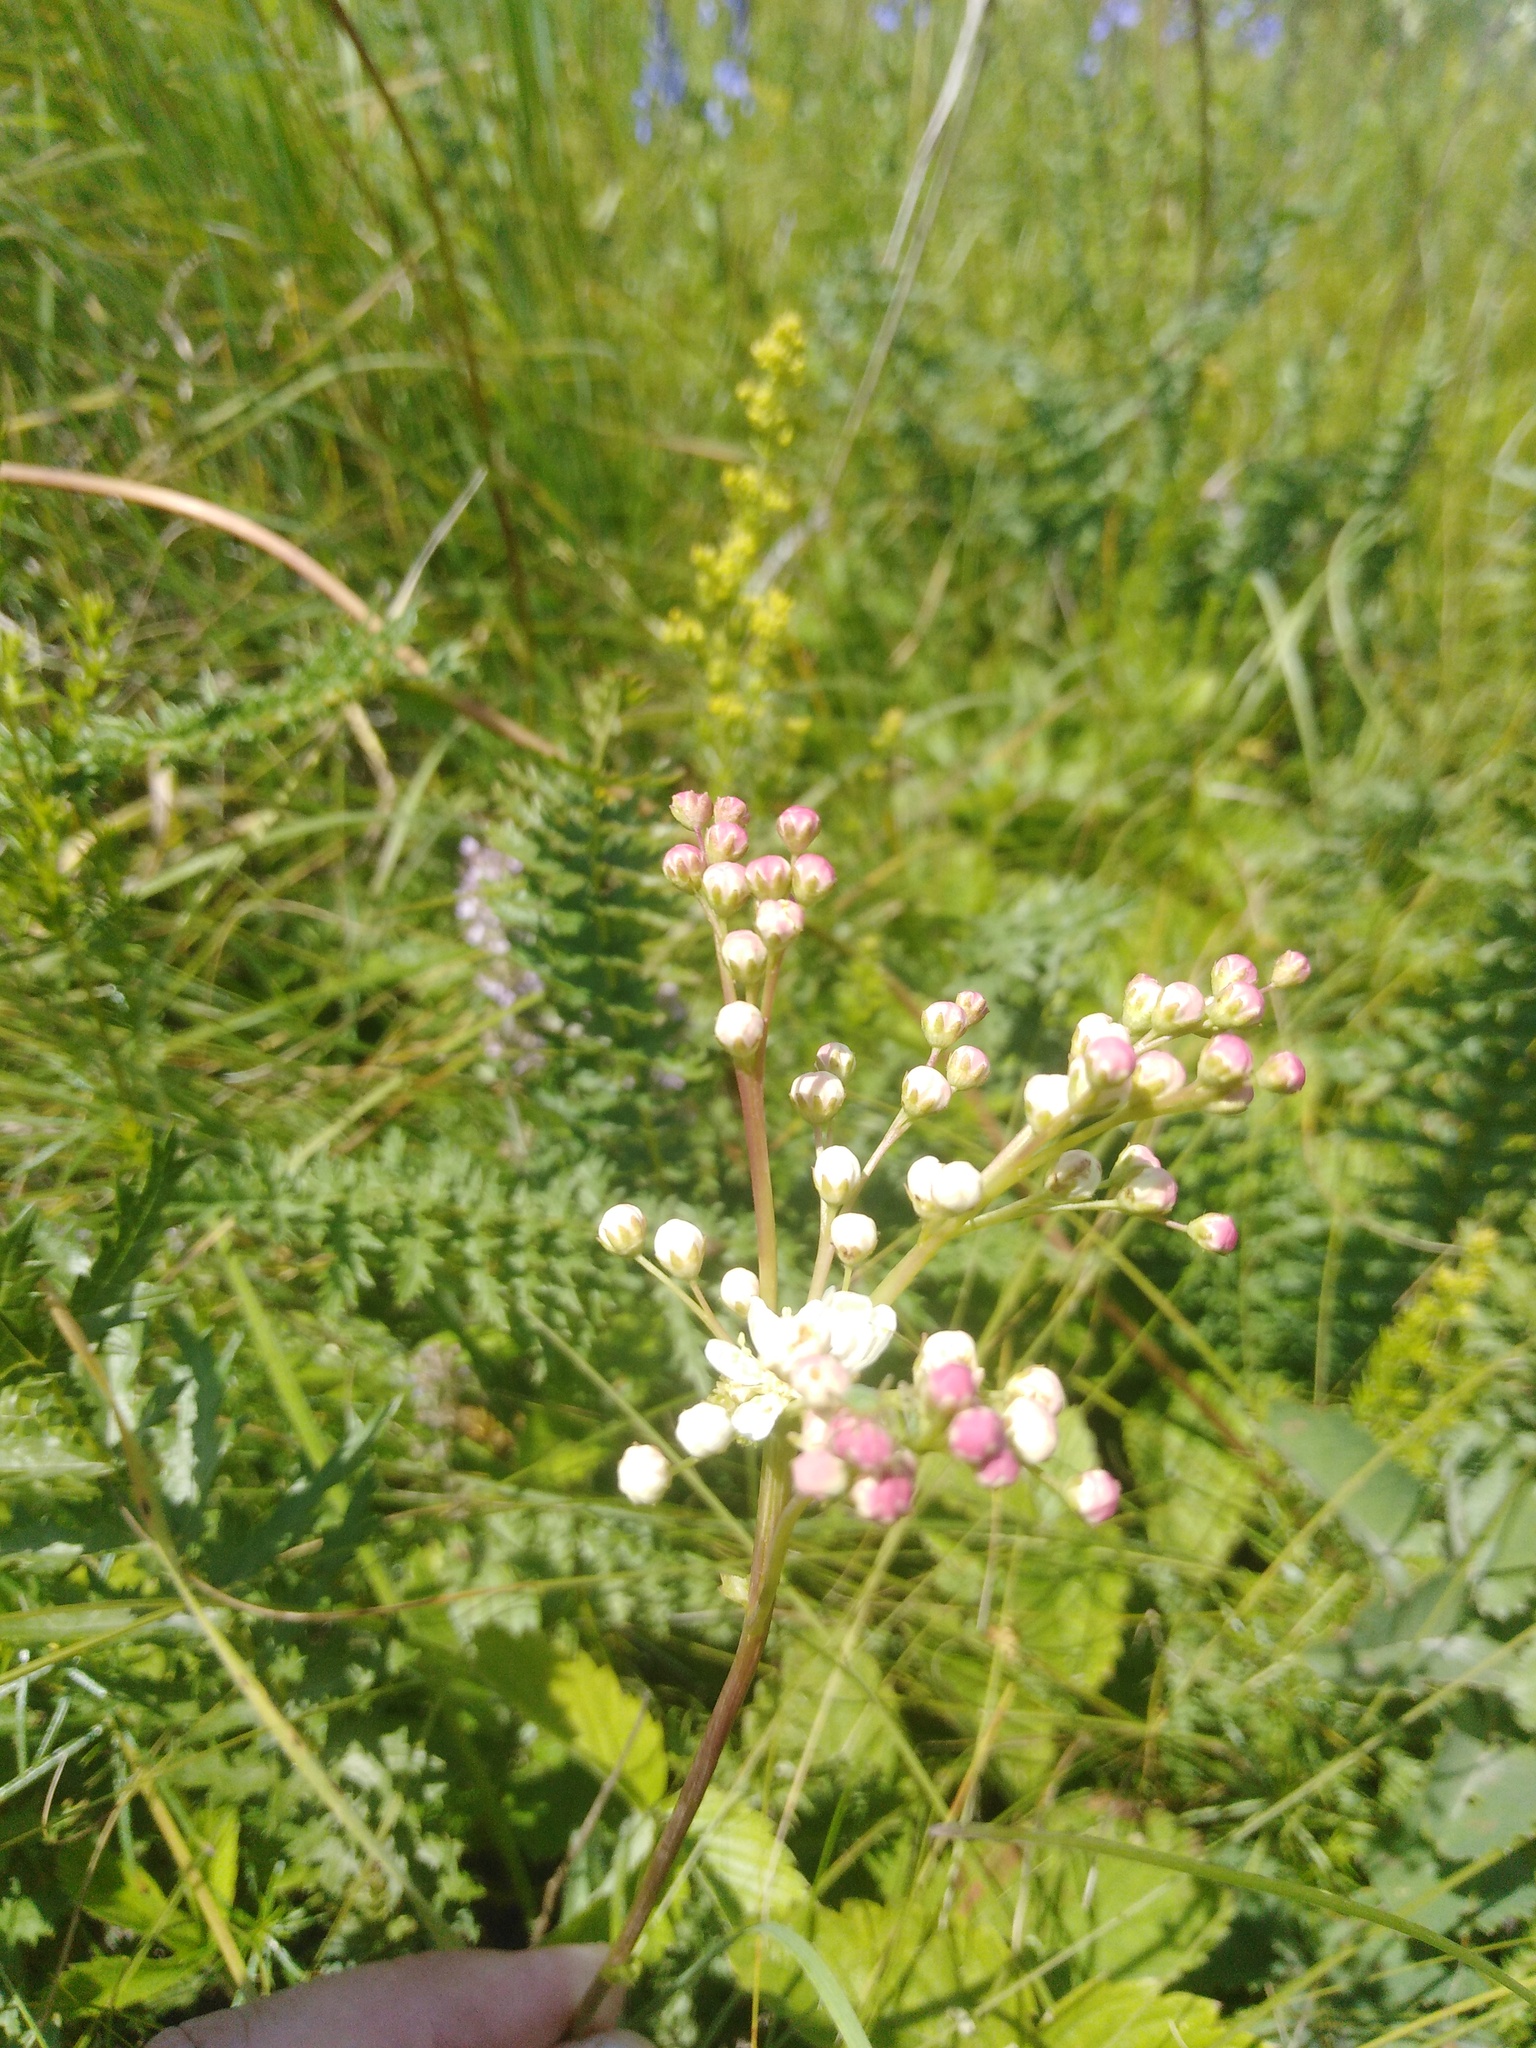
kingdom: Plantae
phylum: Tracheophyta
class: Magnoliopsida
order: Rosales
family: Rosaceae
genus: Filipendula
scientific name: Filipendula vulgaris
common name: Dropwort
